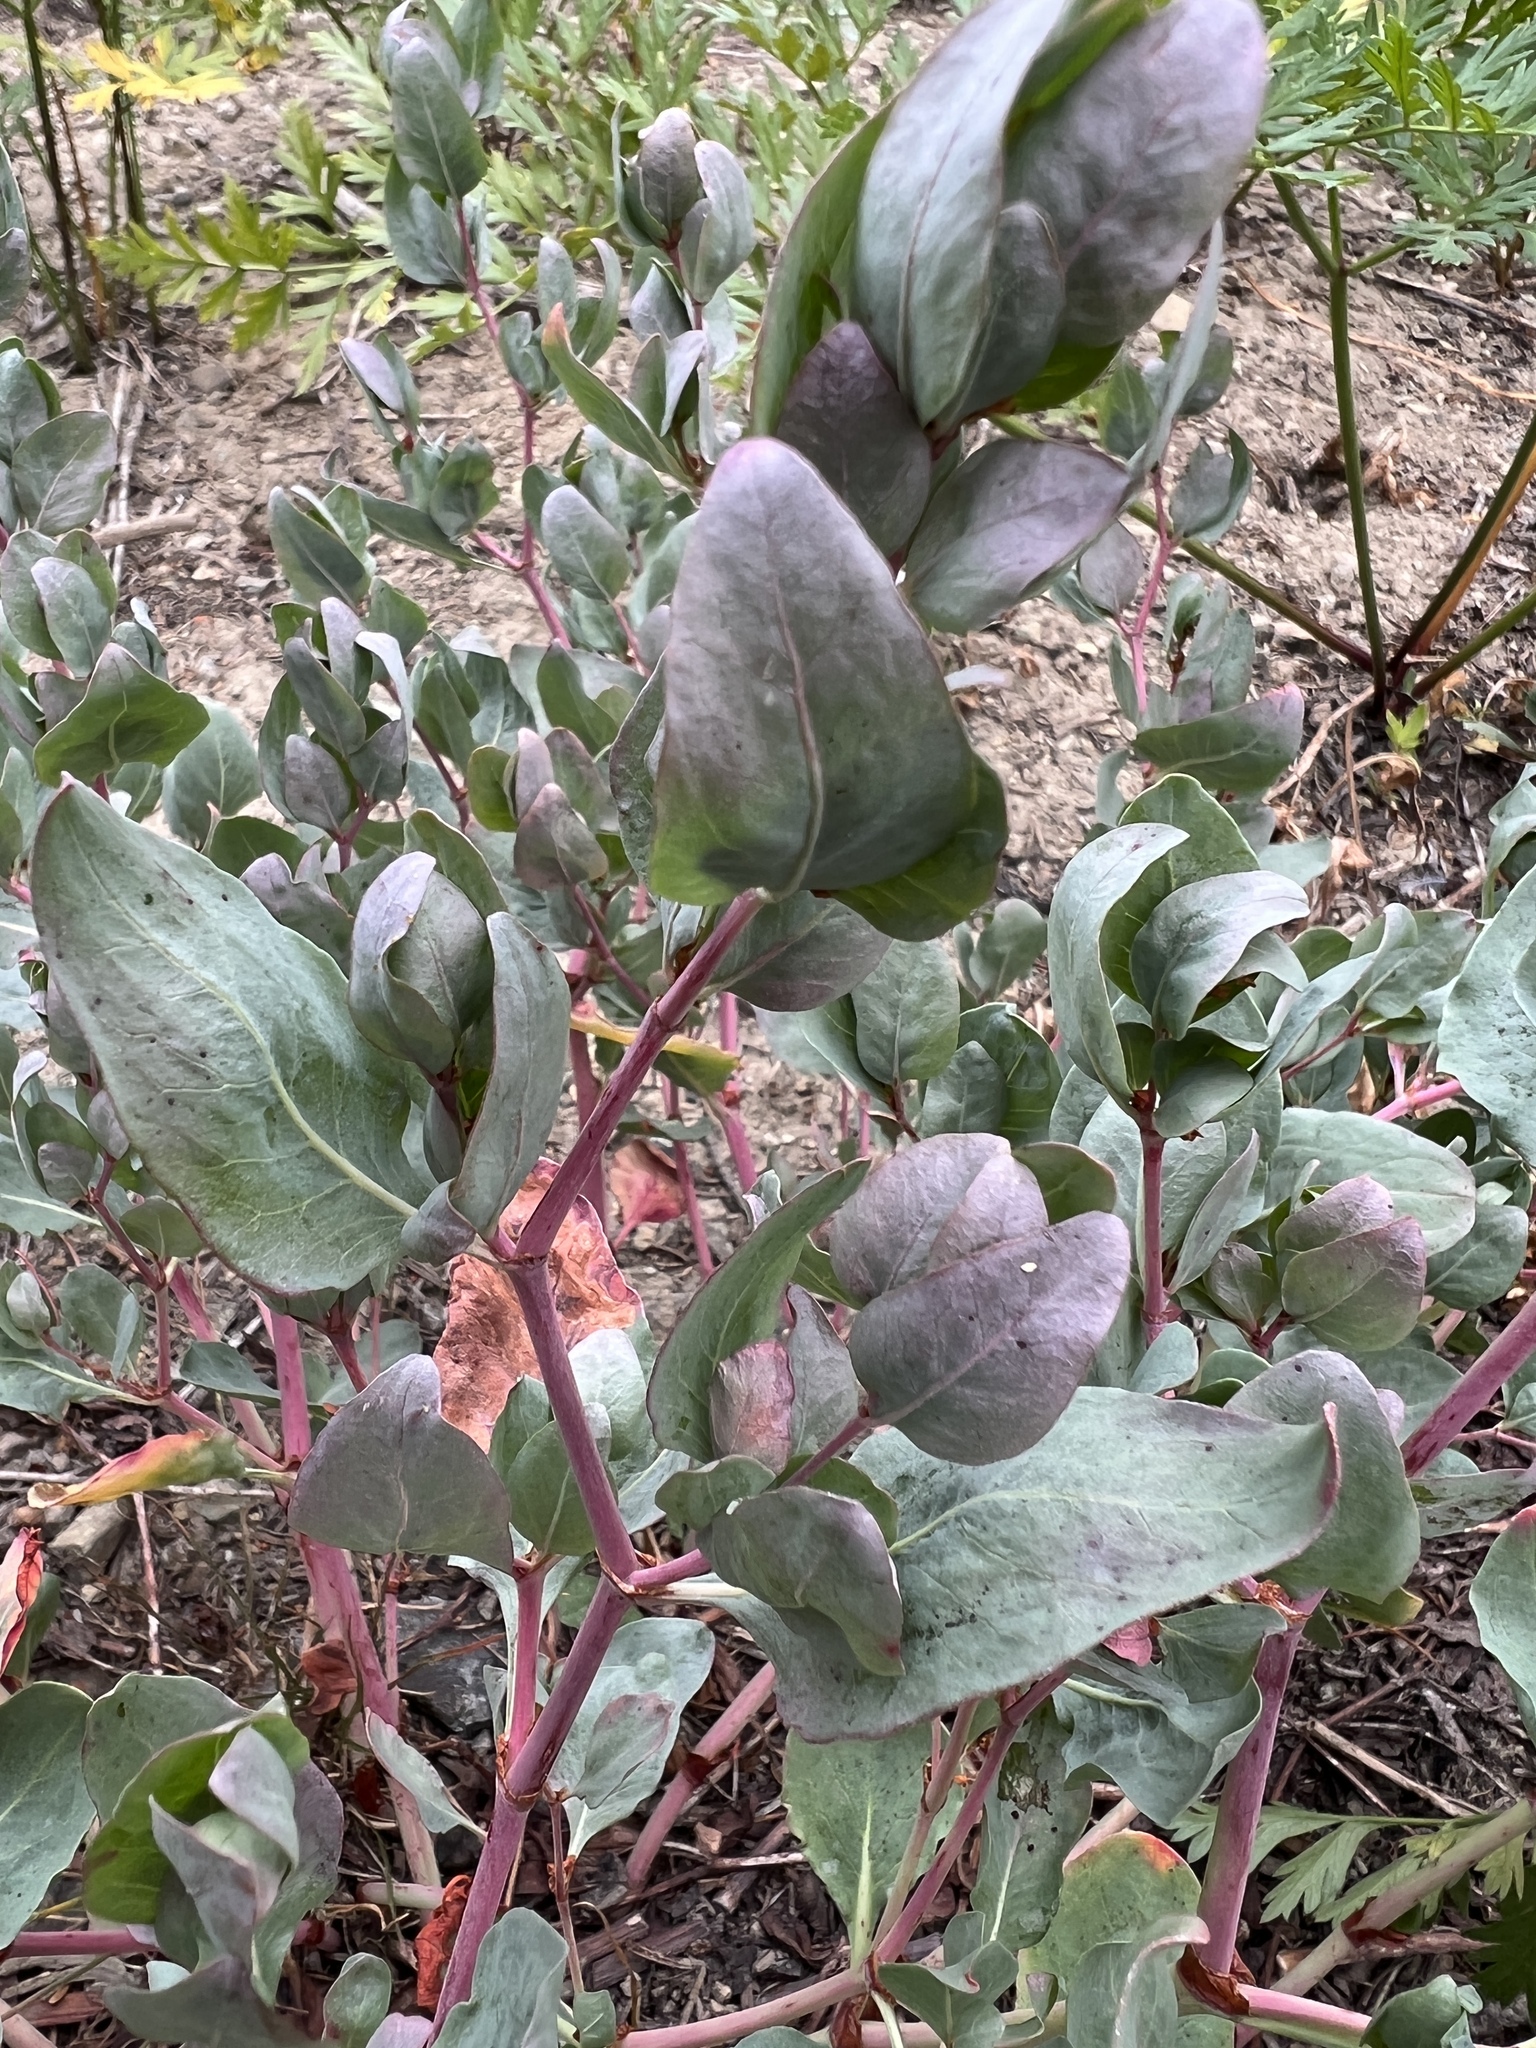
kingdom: Plantae
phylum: Tracheophyta
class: Magnoliopsida
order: Caryophyllales
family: Polygonaceae
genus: Koenigia
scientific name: Koenigia davisiae
